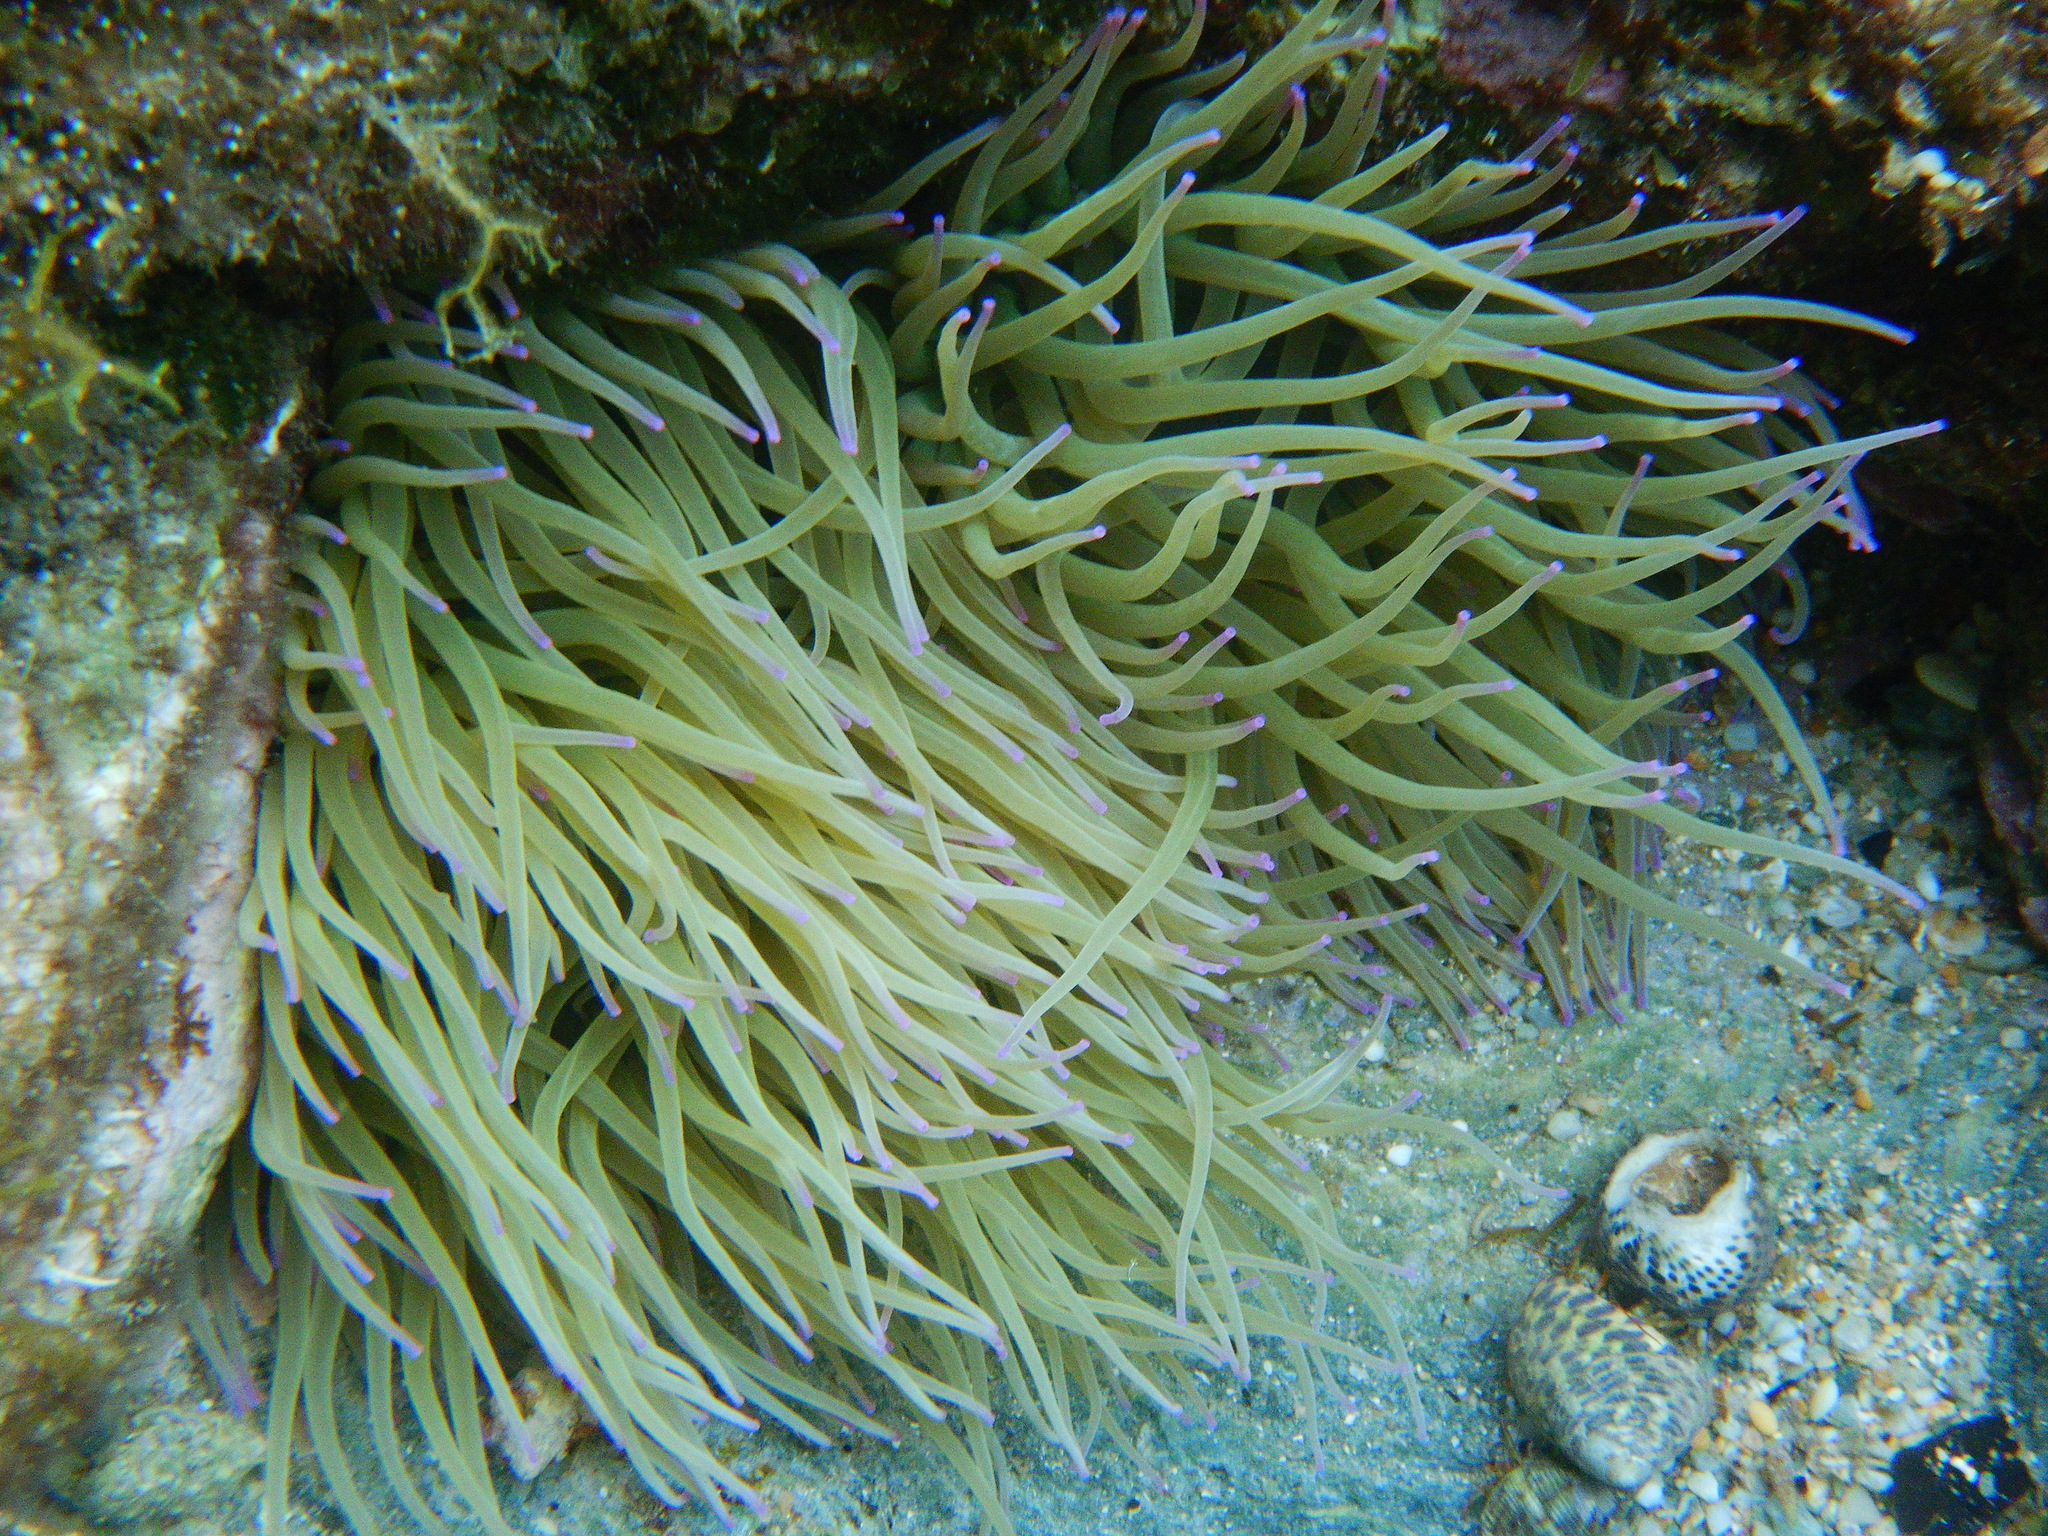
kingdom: Animalia
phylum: Cnidaria
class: Anthozoa
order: Actiniaria
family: Actiniidae
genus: Anemonia
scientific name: Anemonia viridis
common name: Snakelocks anemone
